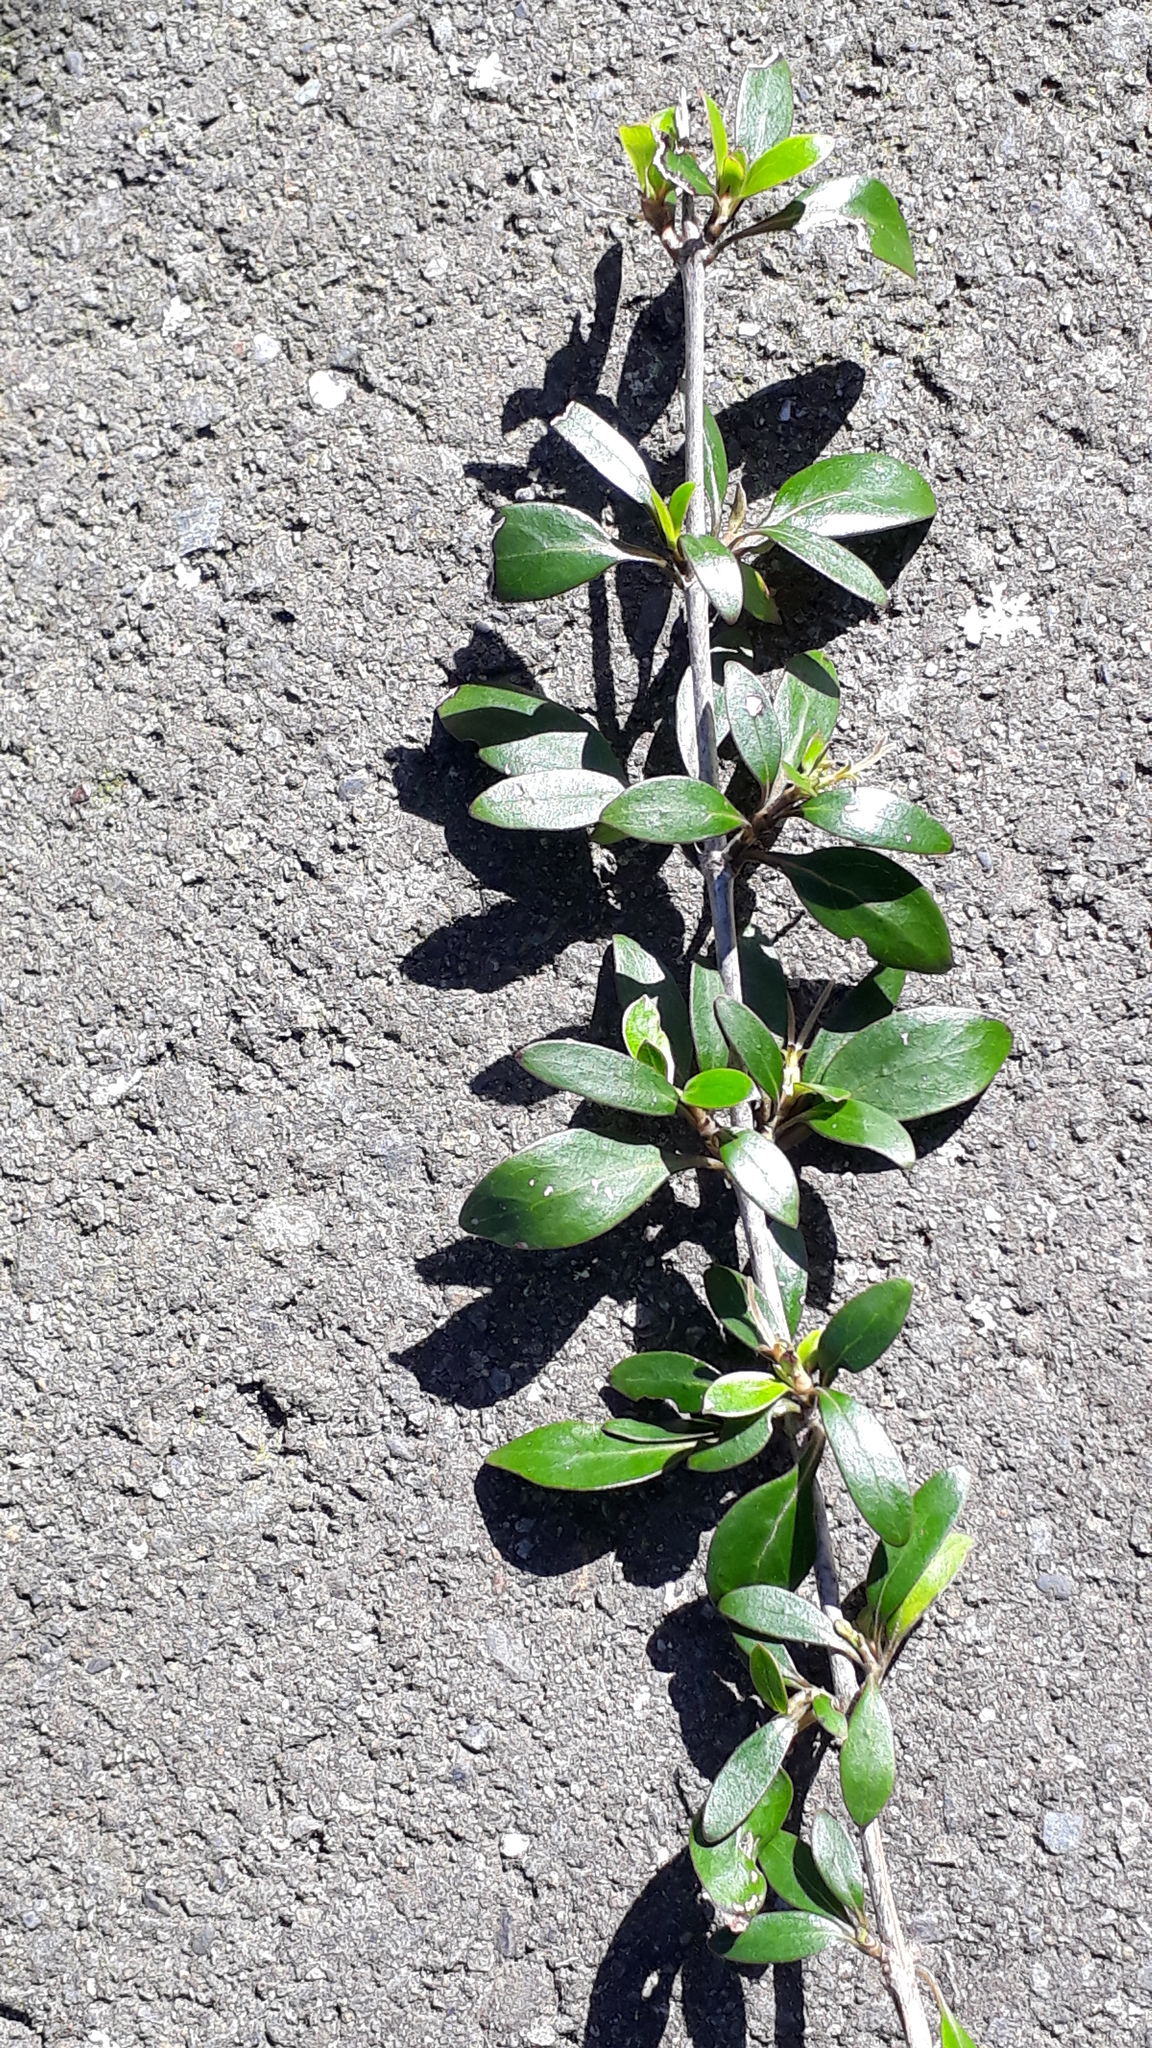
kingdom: Plantae
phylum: Tracheophyta
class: Magnoliopsida
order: Gentianales
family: Rubiaceae
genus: Coprosma
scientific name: Coprosma cunninghamii
